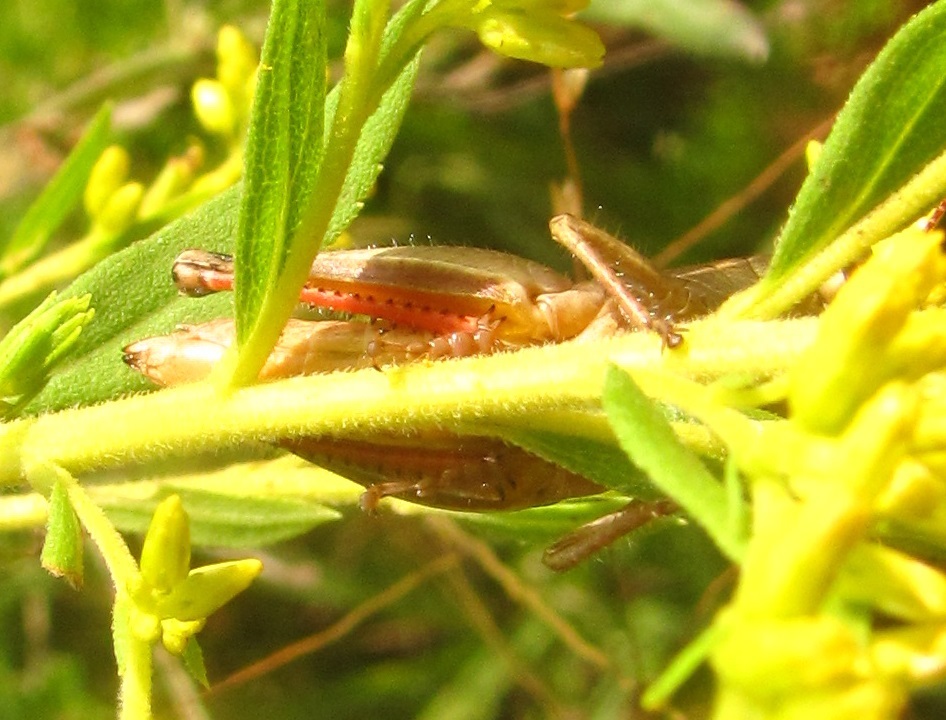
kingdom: Animalia
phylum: Arthropoda
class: Insecta
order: Orthoptera
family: Acrididae
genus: Melanoplus
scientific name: Melanoplus scudderi
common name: Scudder's short-winged locust
